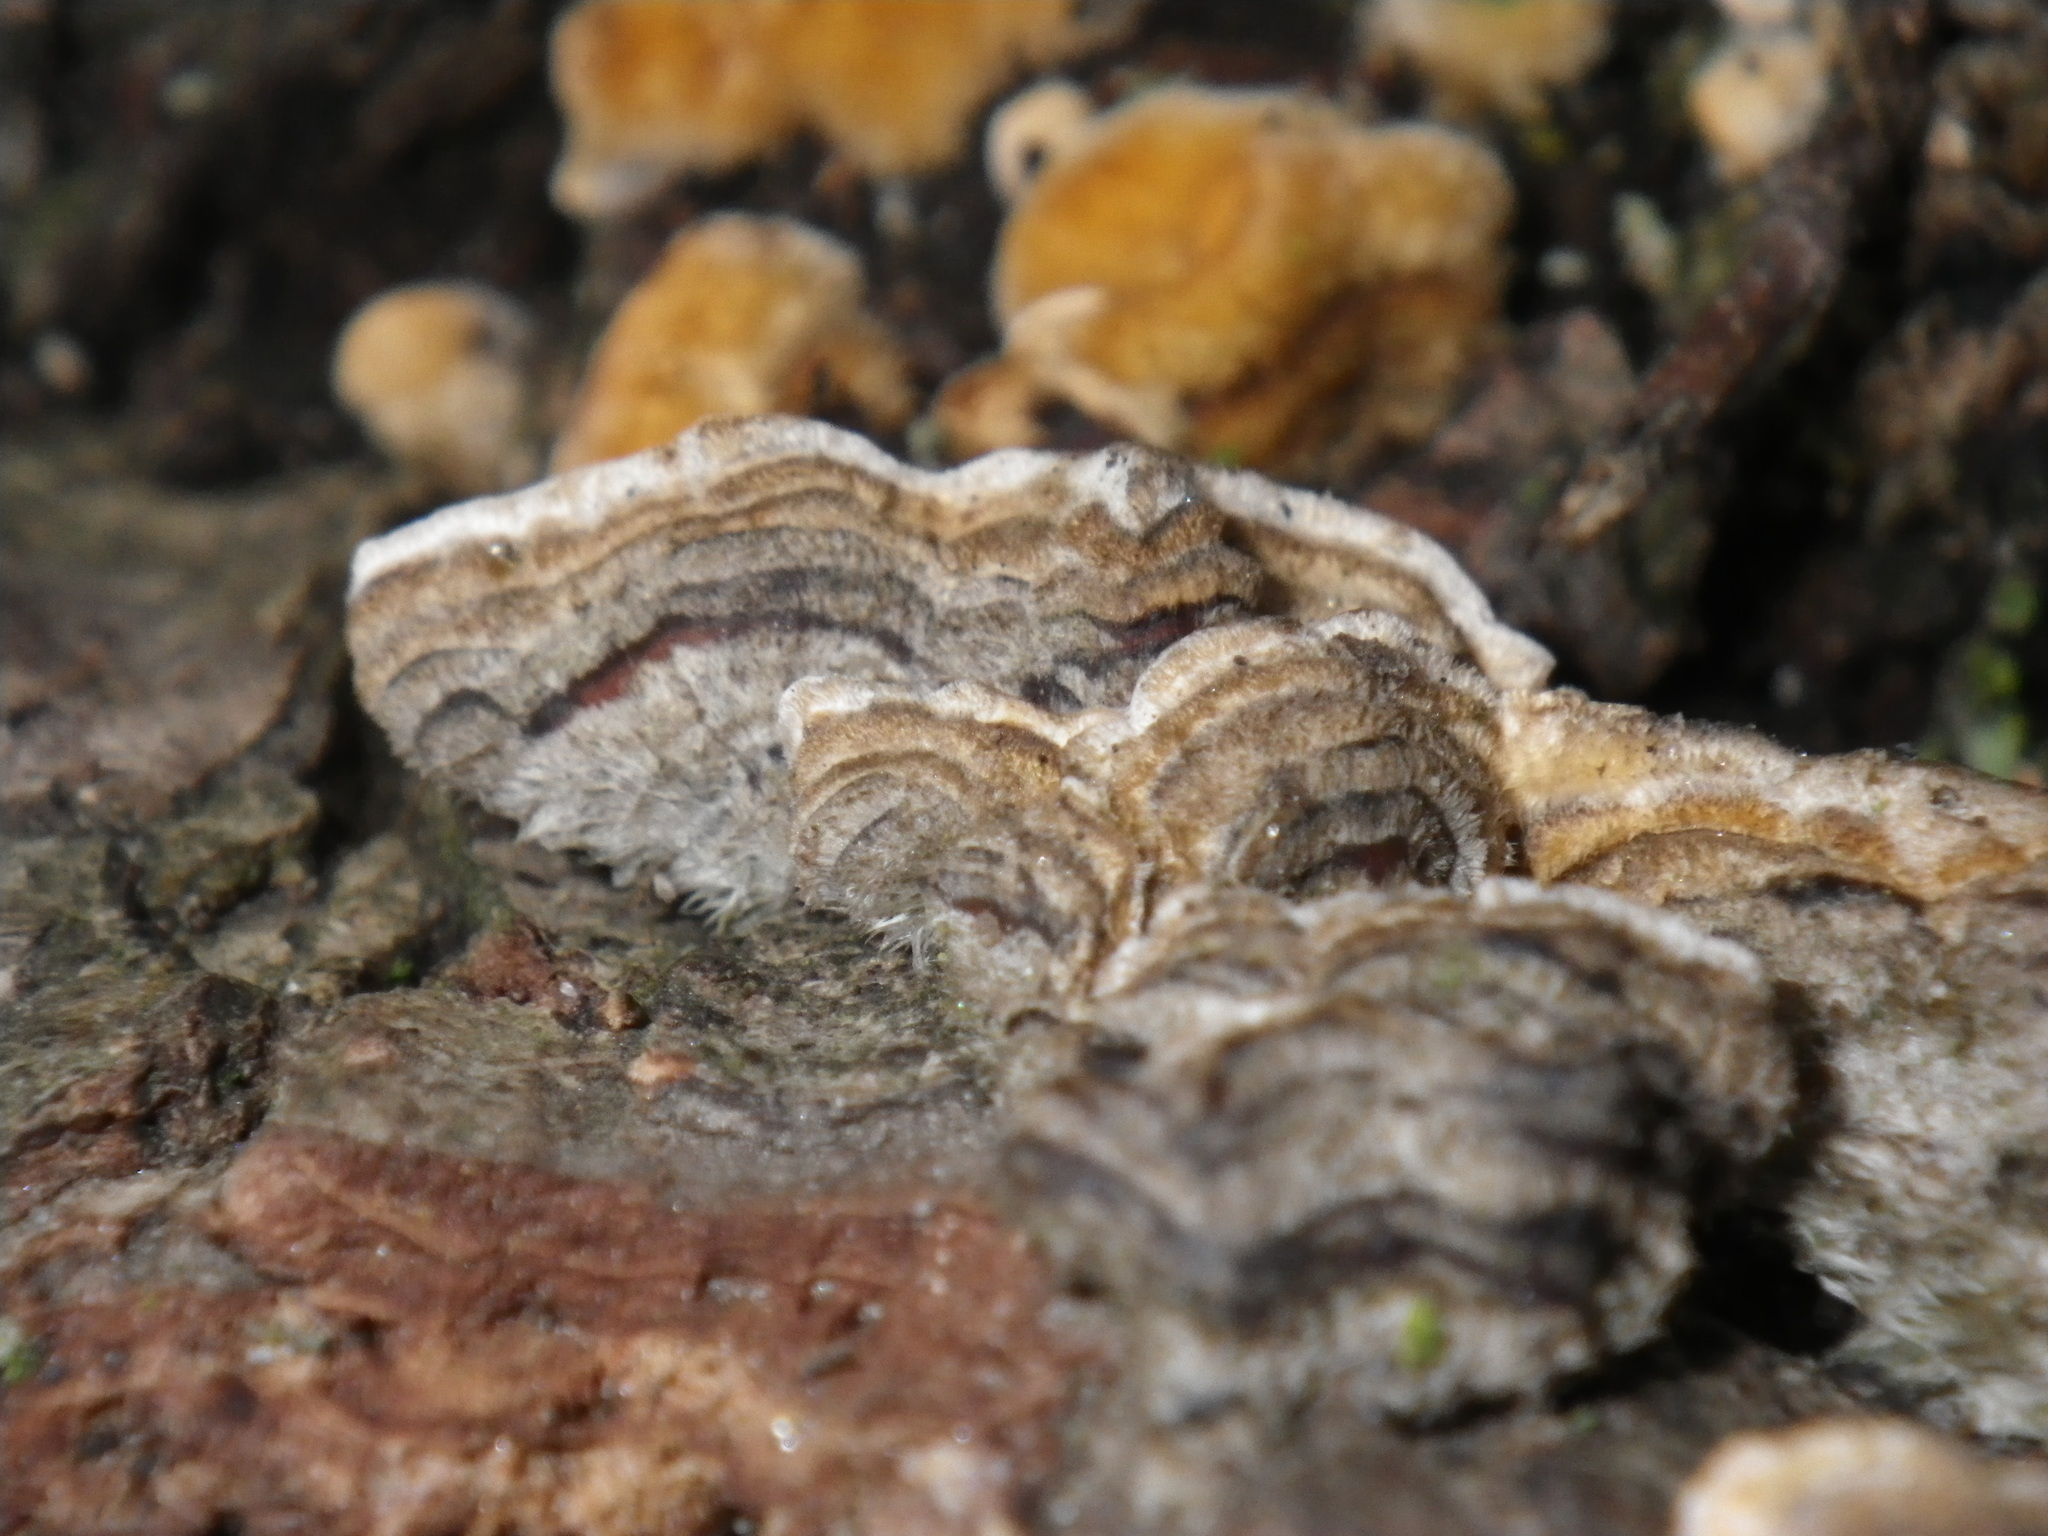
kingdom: Fungi
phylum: Basidiomycota
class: Agaricomycetes
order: Polyporales
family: Polyporaceae
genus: Trametes
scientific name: Trametes hirsuta
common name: Hairy bracket
